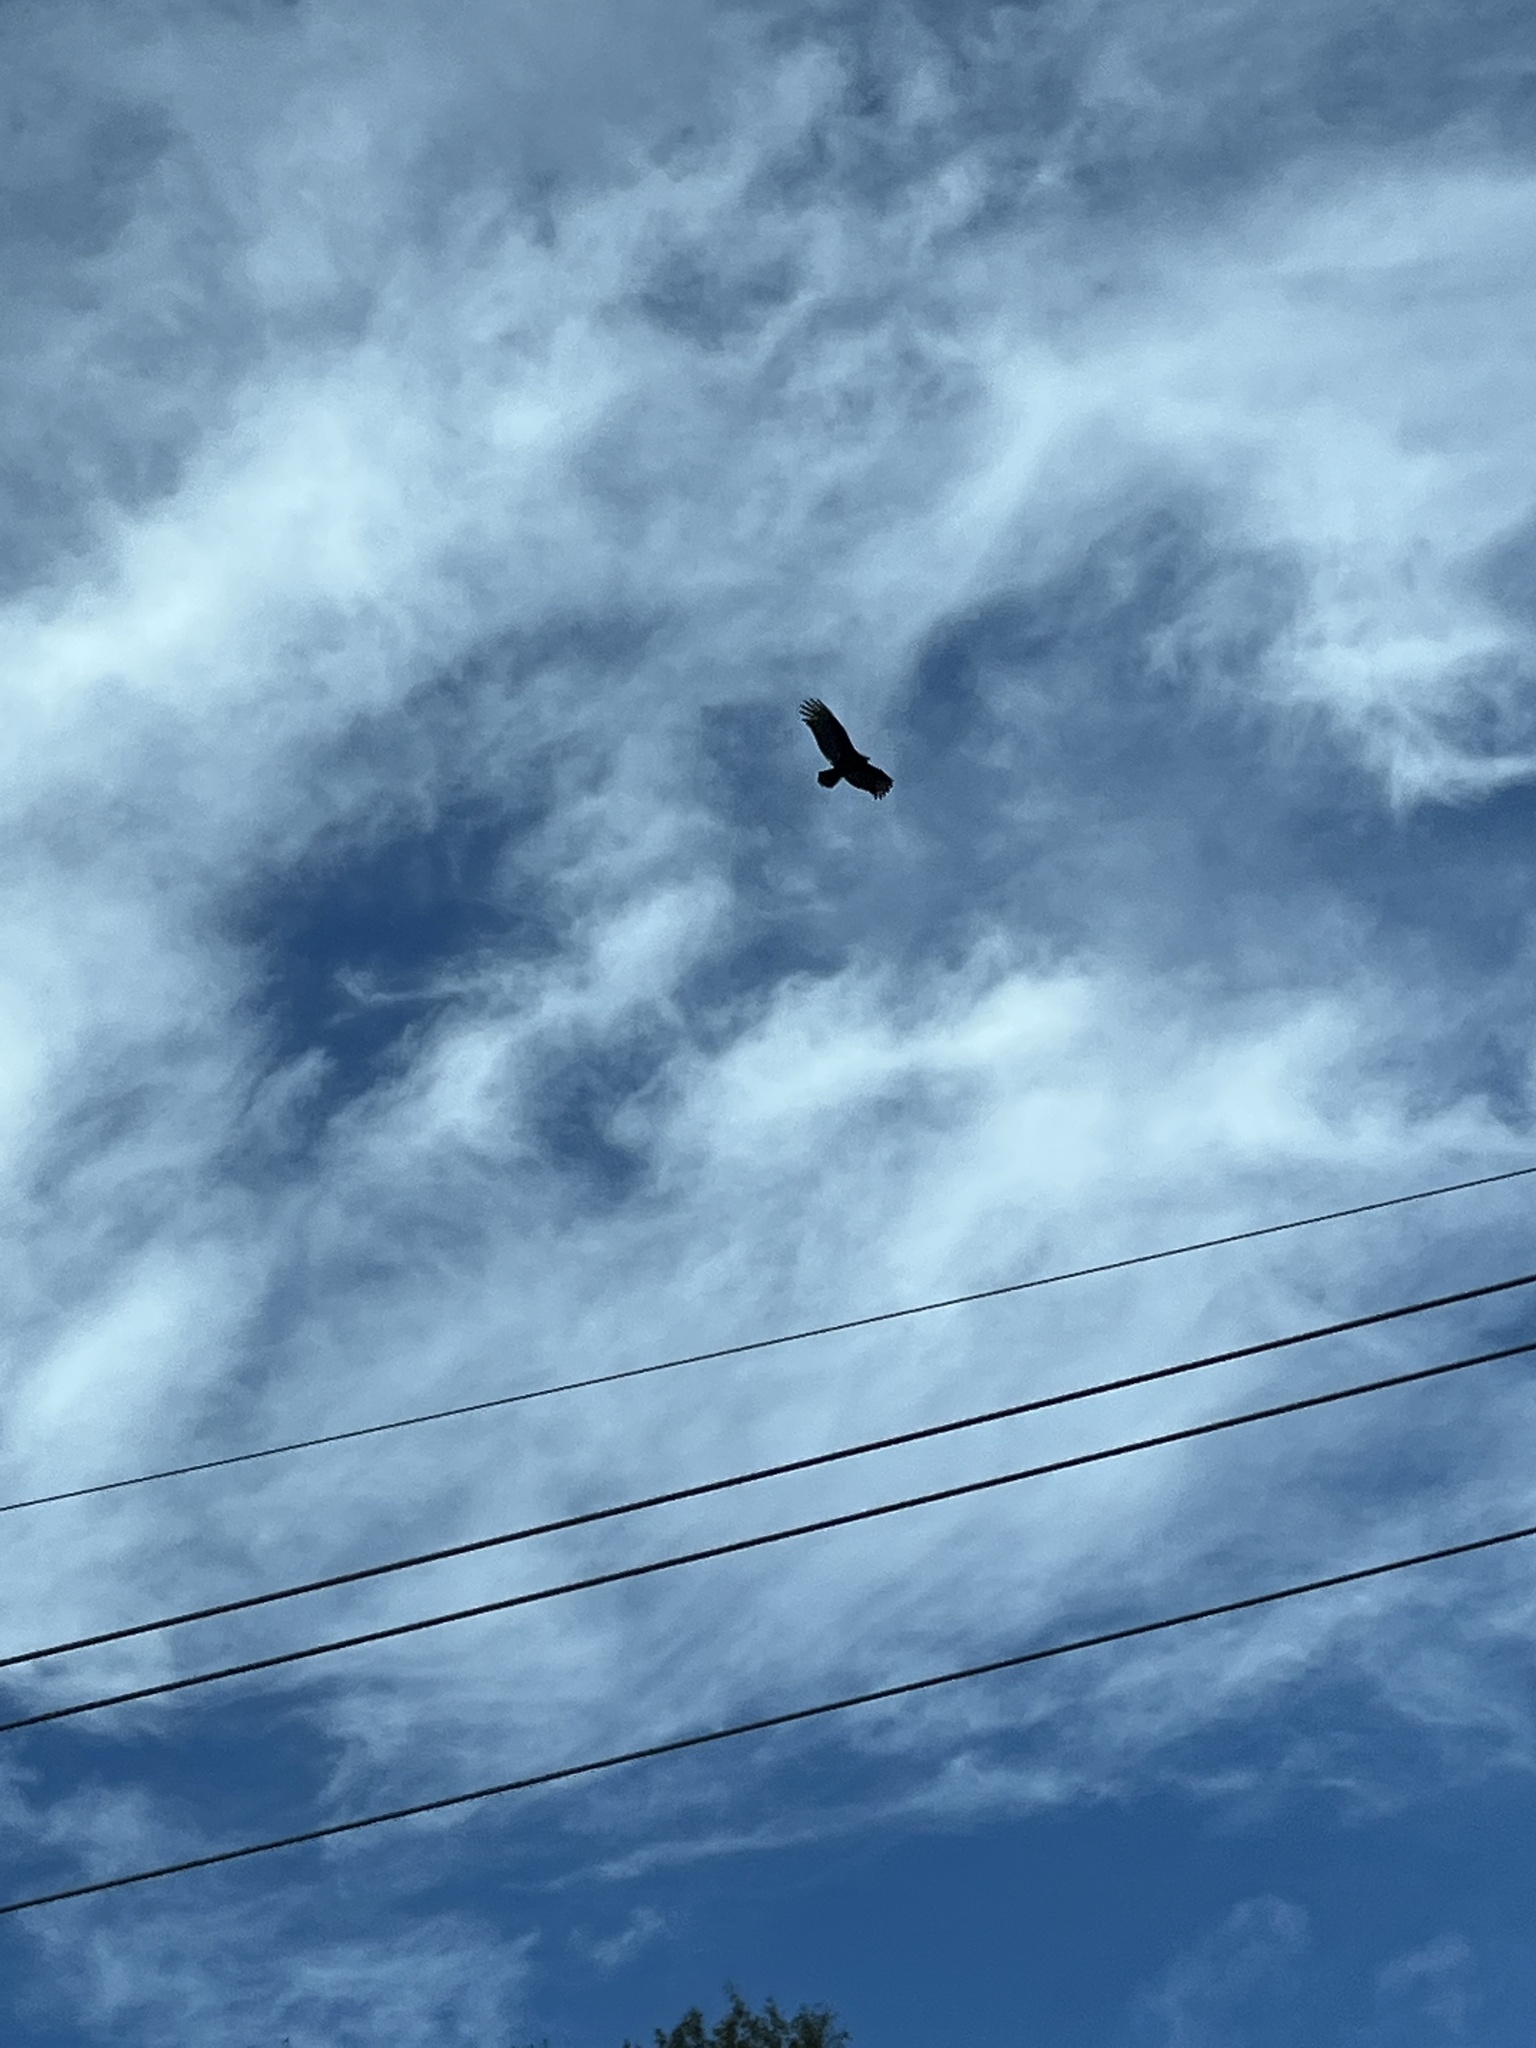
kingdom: Animalia
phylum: Chordata
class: Aves
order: Accipitriformes
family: Cathartidae
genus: Cathartes
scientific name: Cathartes aura
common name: Turkey vulture
